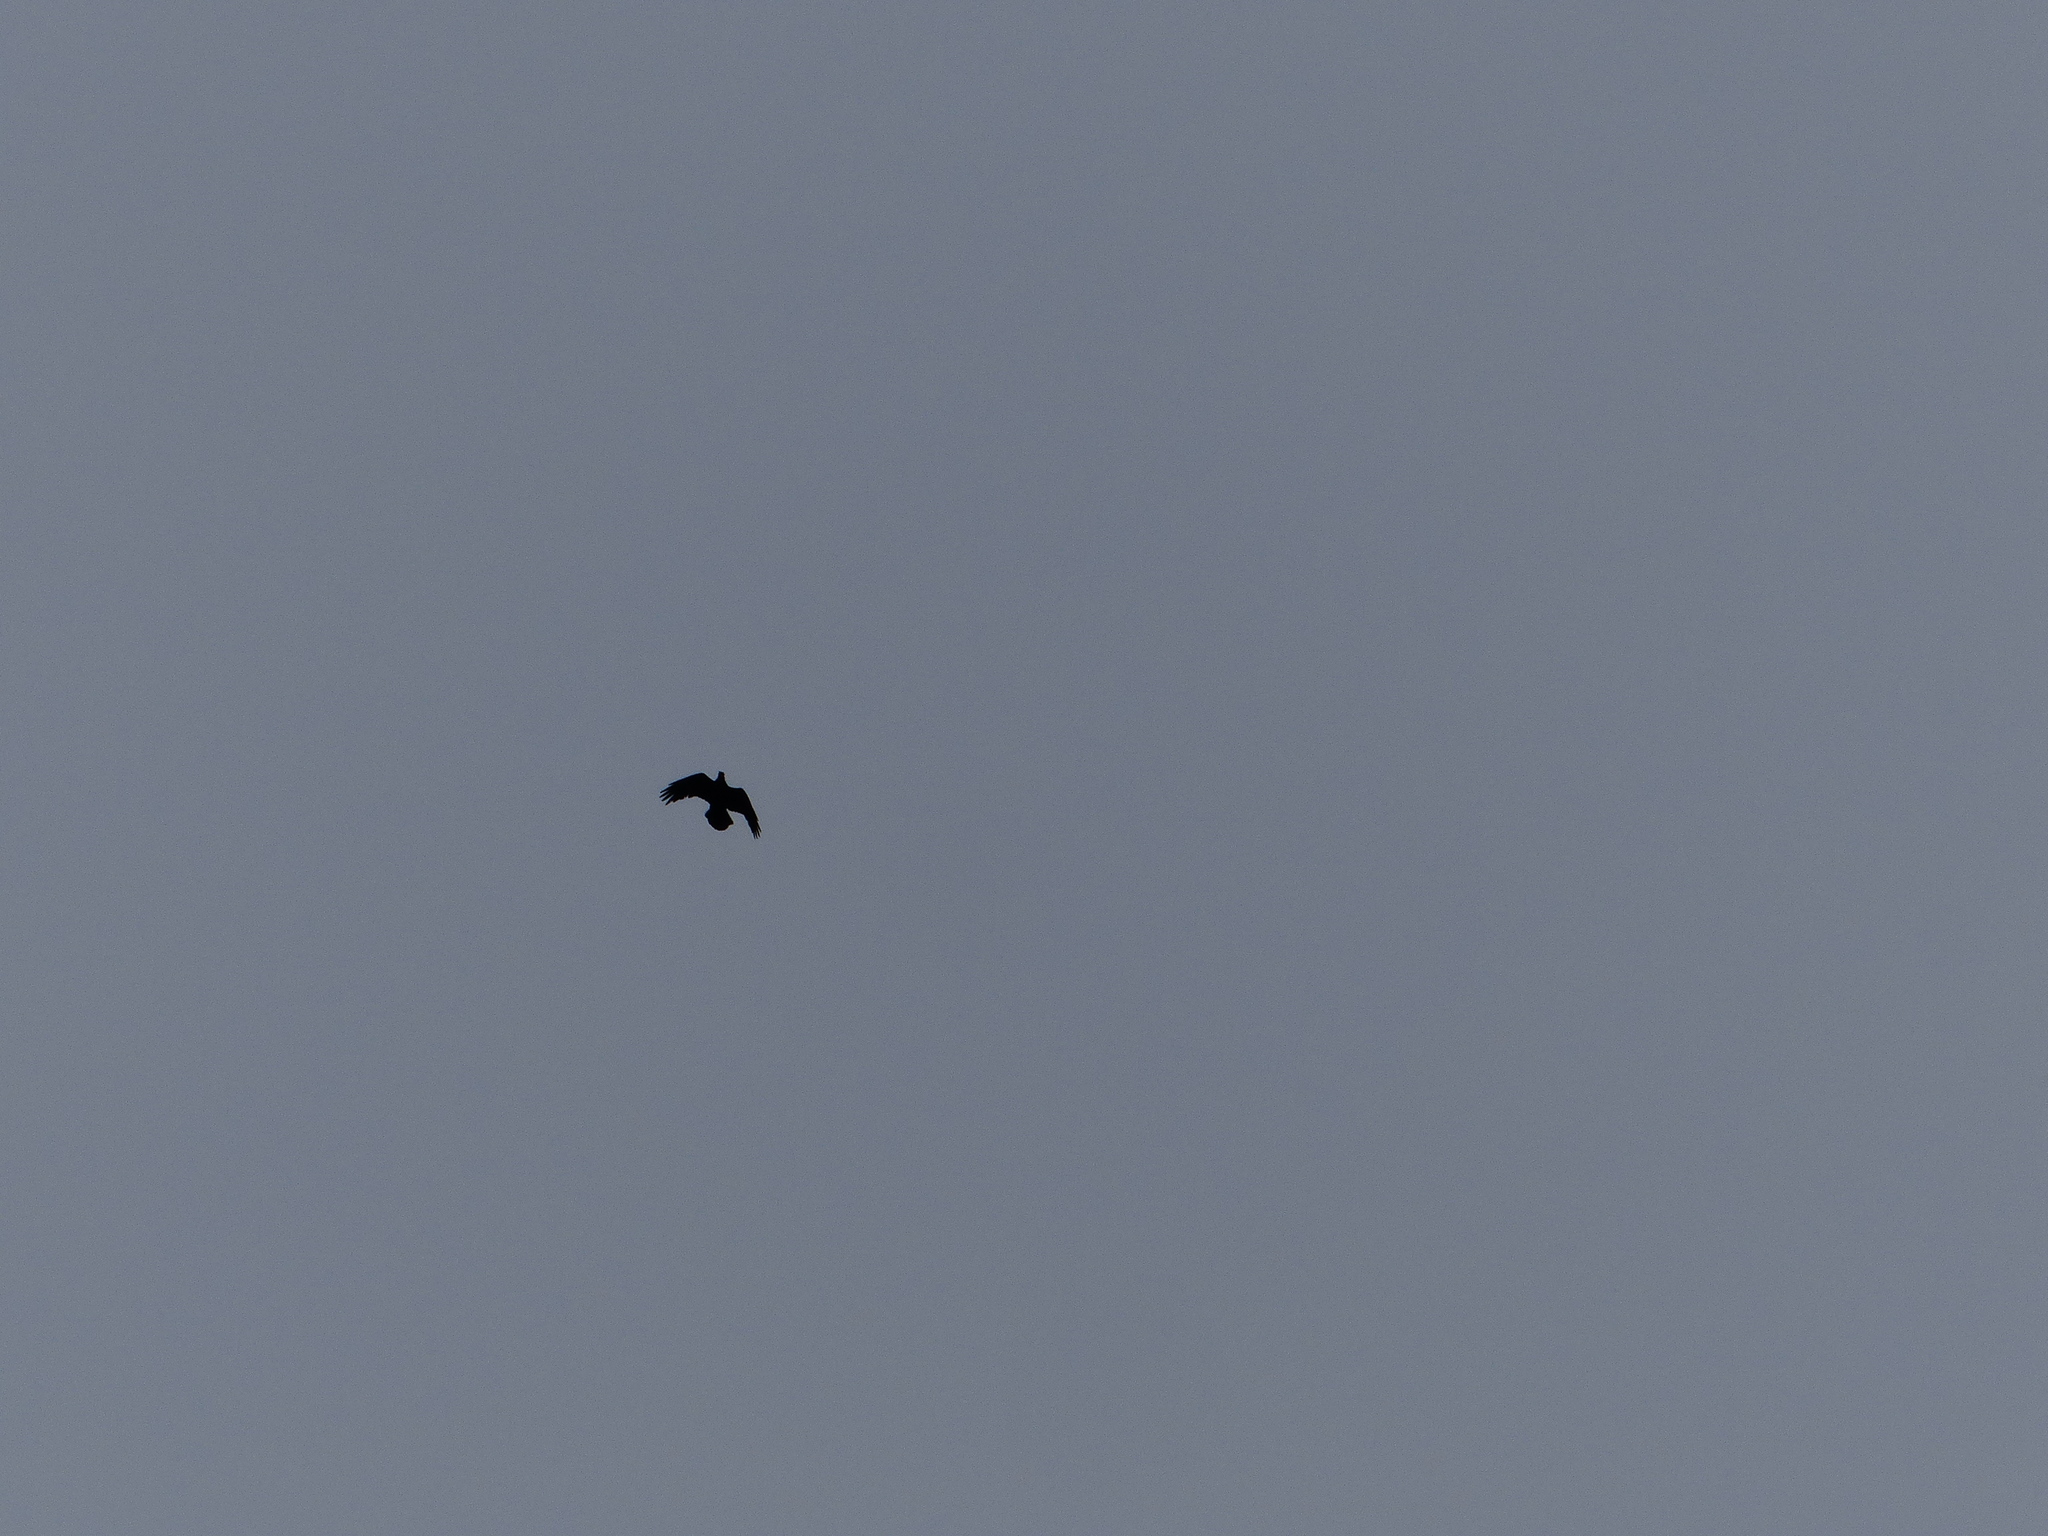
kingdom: Animalia
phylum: Chordata
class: Aves
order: Passeriformes
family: Corvidae
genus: Corvus
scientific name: Corvus corax
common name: Common raven
